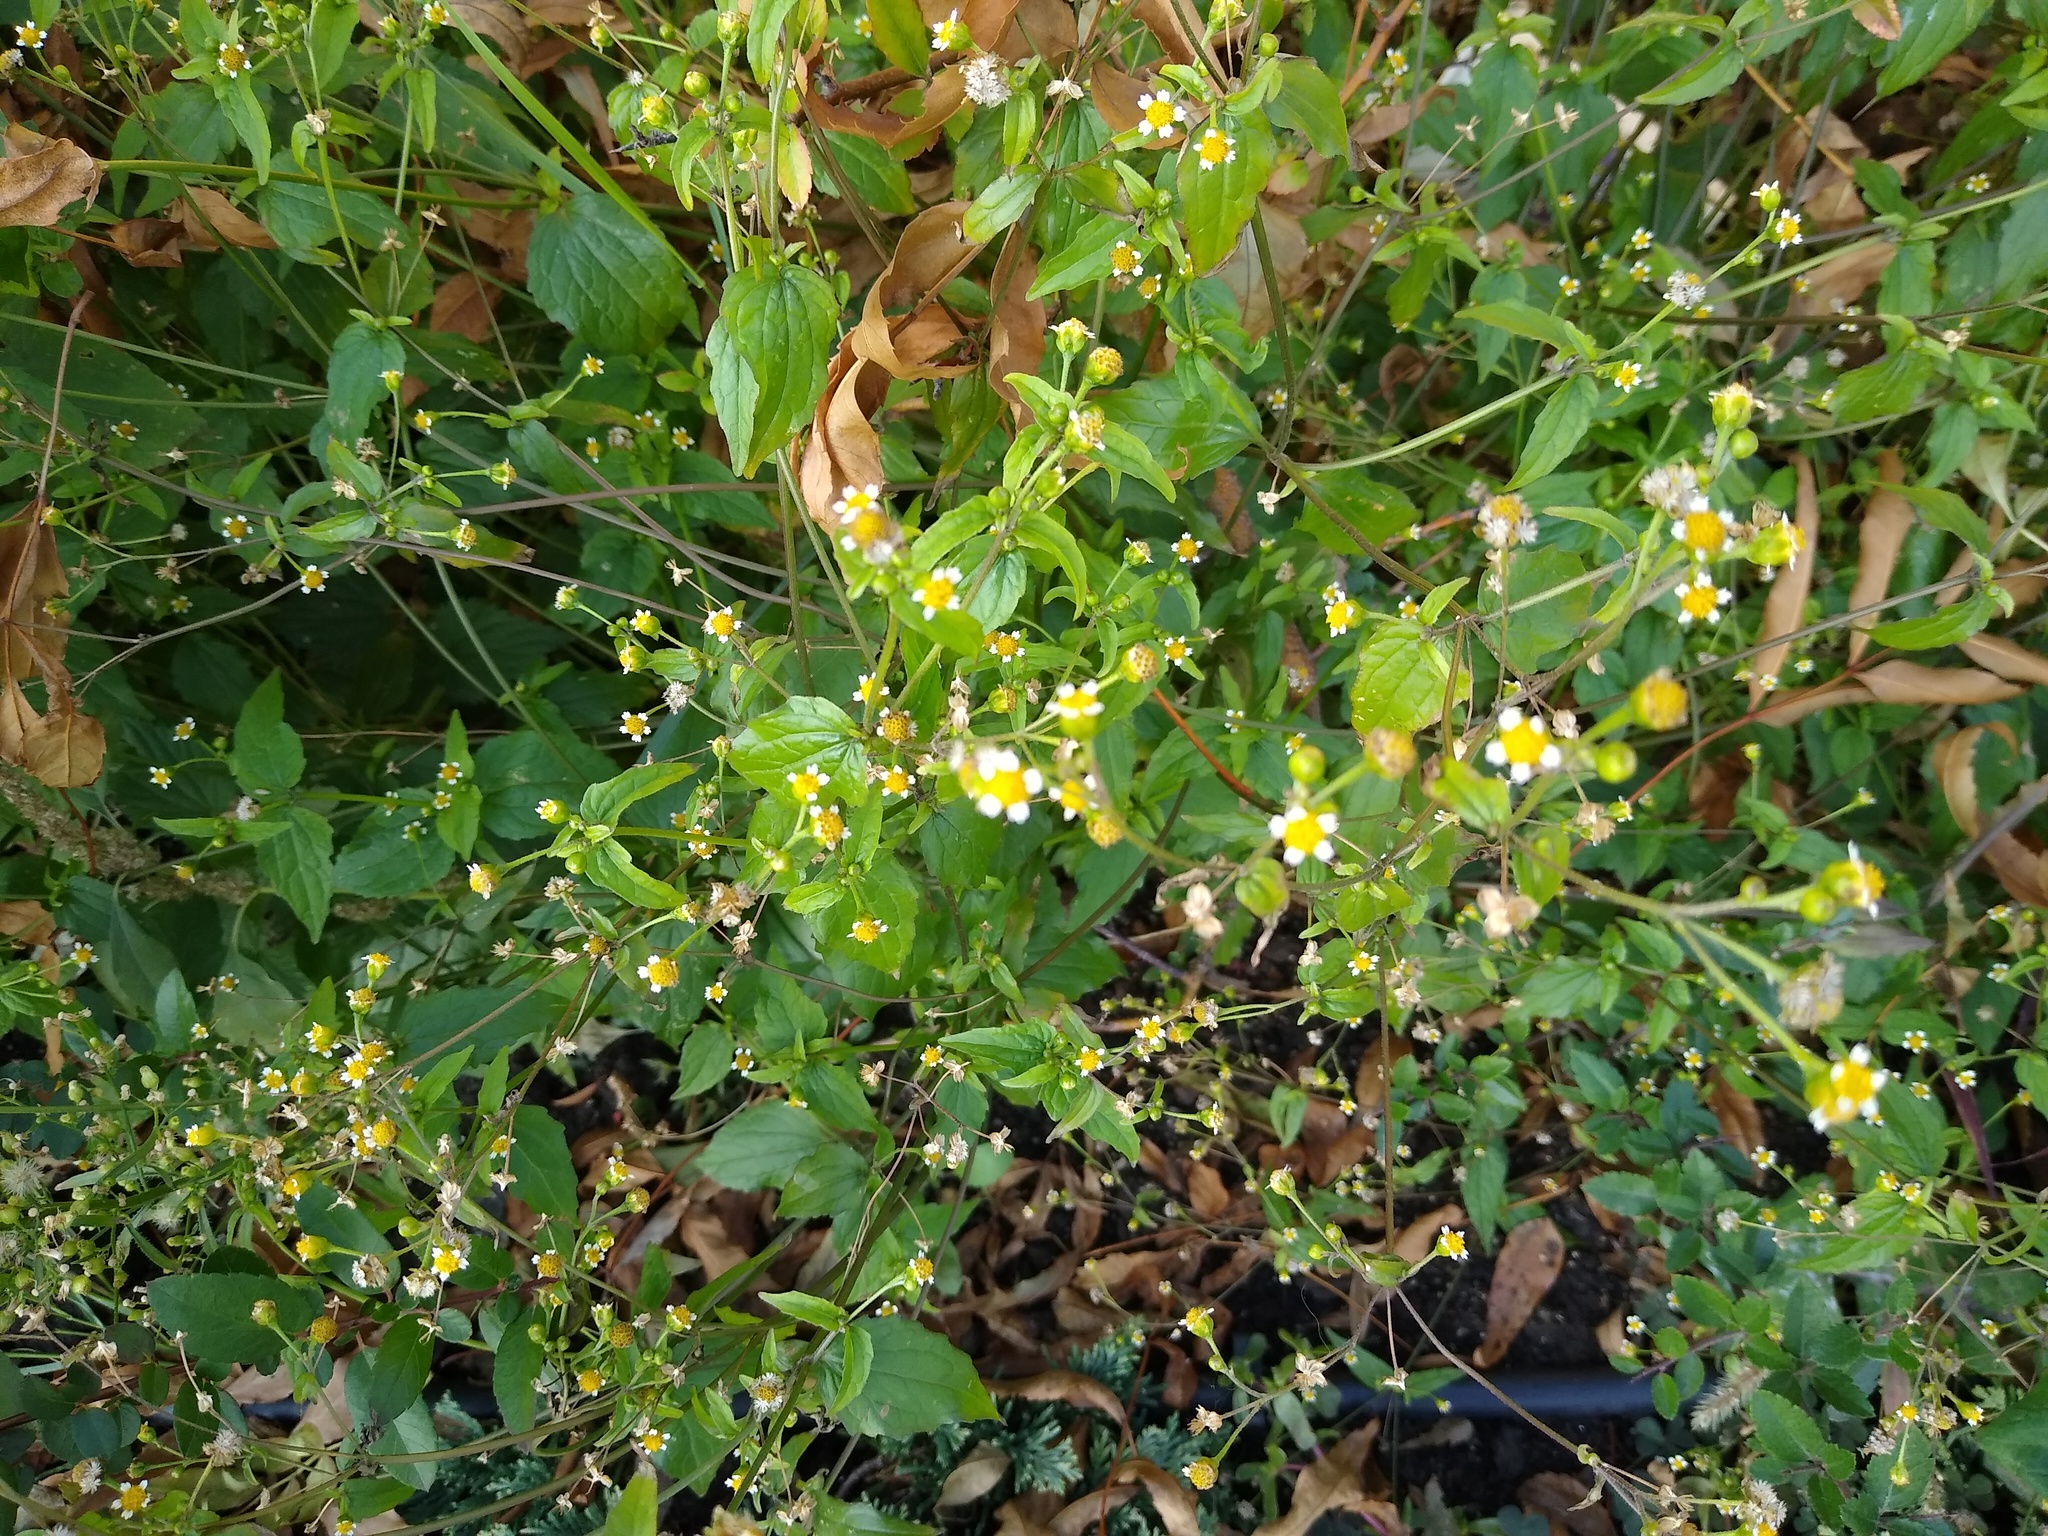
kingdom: Plantae
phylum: Tracheophyta
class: Magnoliopsida
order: Asterales
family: Asteraceae
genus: Galinsoga
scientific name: Galinsoga parviflora
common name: Gallant soldier
